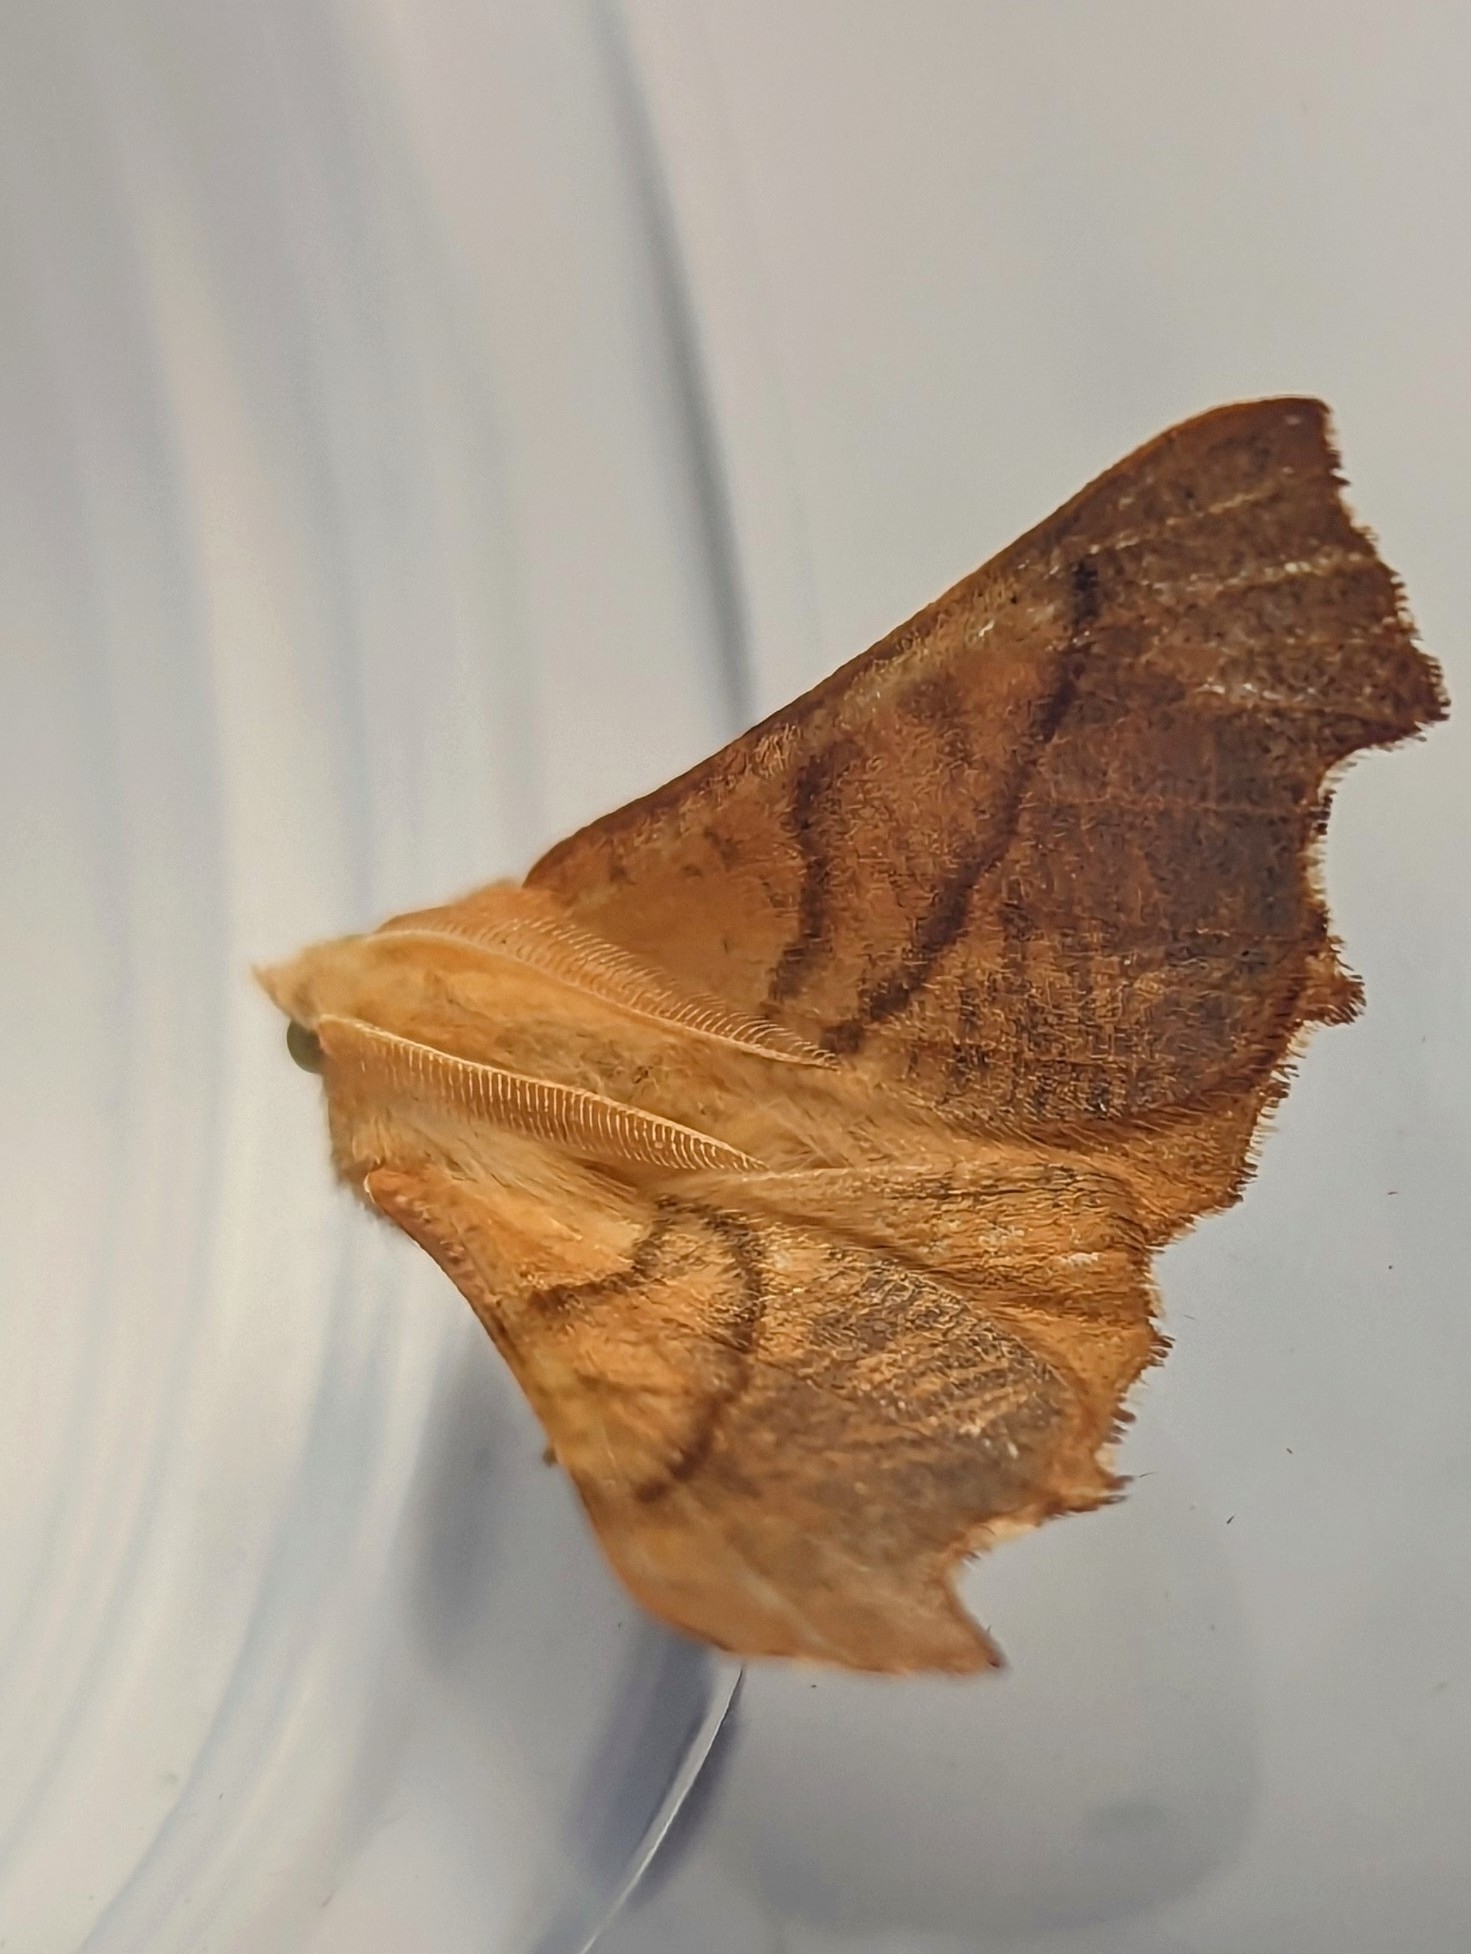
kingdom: Animalia
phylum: Arthropoda
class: Insecta
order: Lepidoptera
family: Geometridae
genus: Ennomos
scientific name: Ennomos fuscantaria
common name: Dusky thorn
